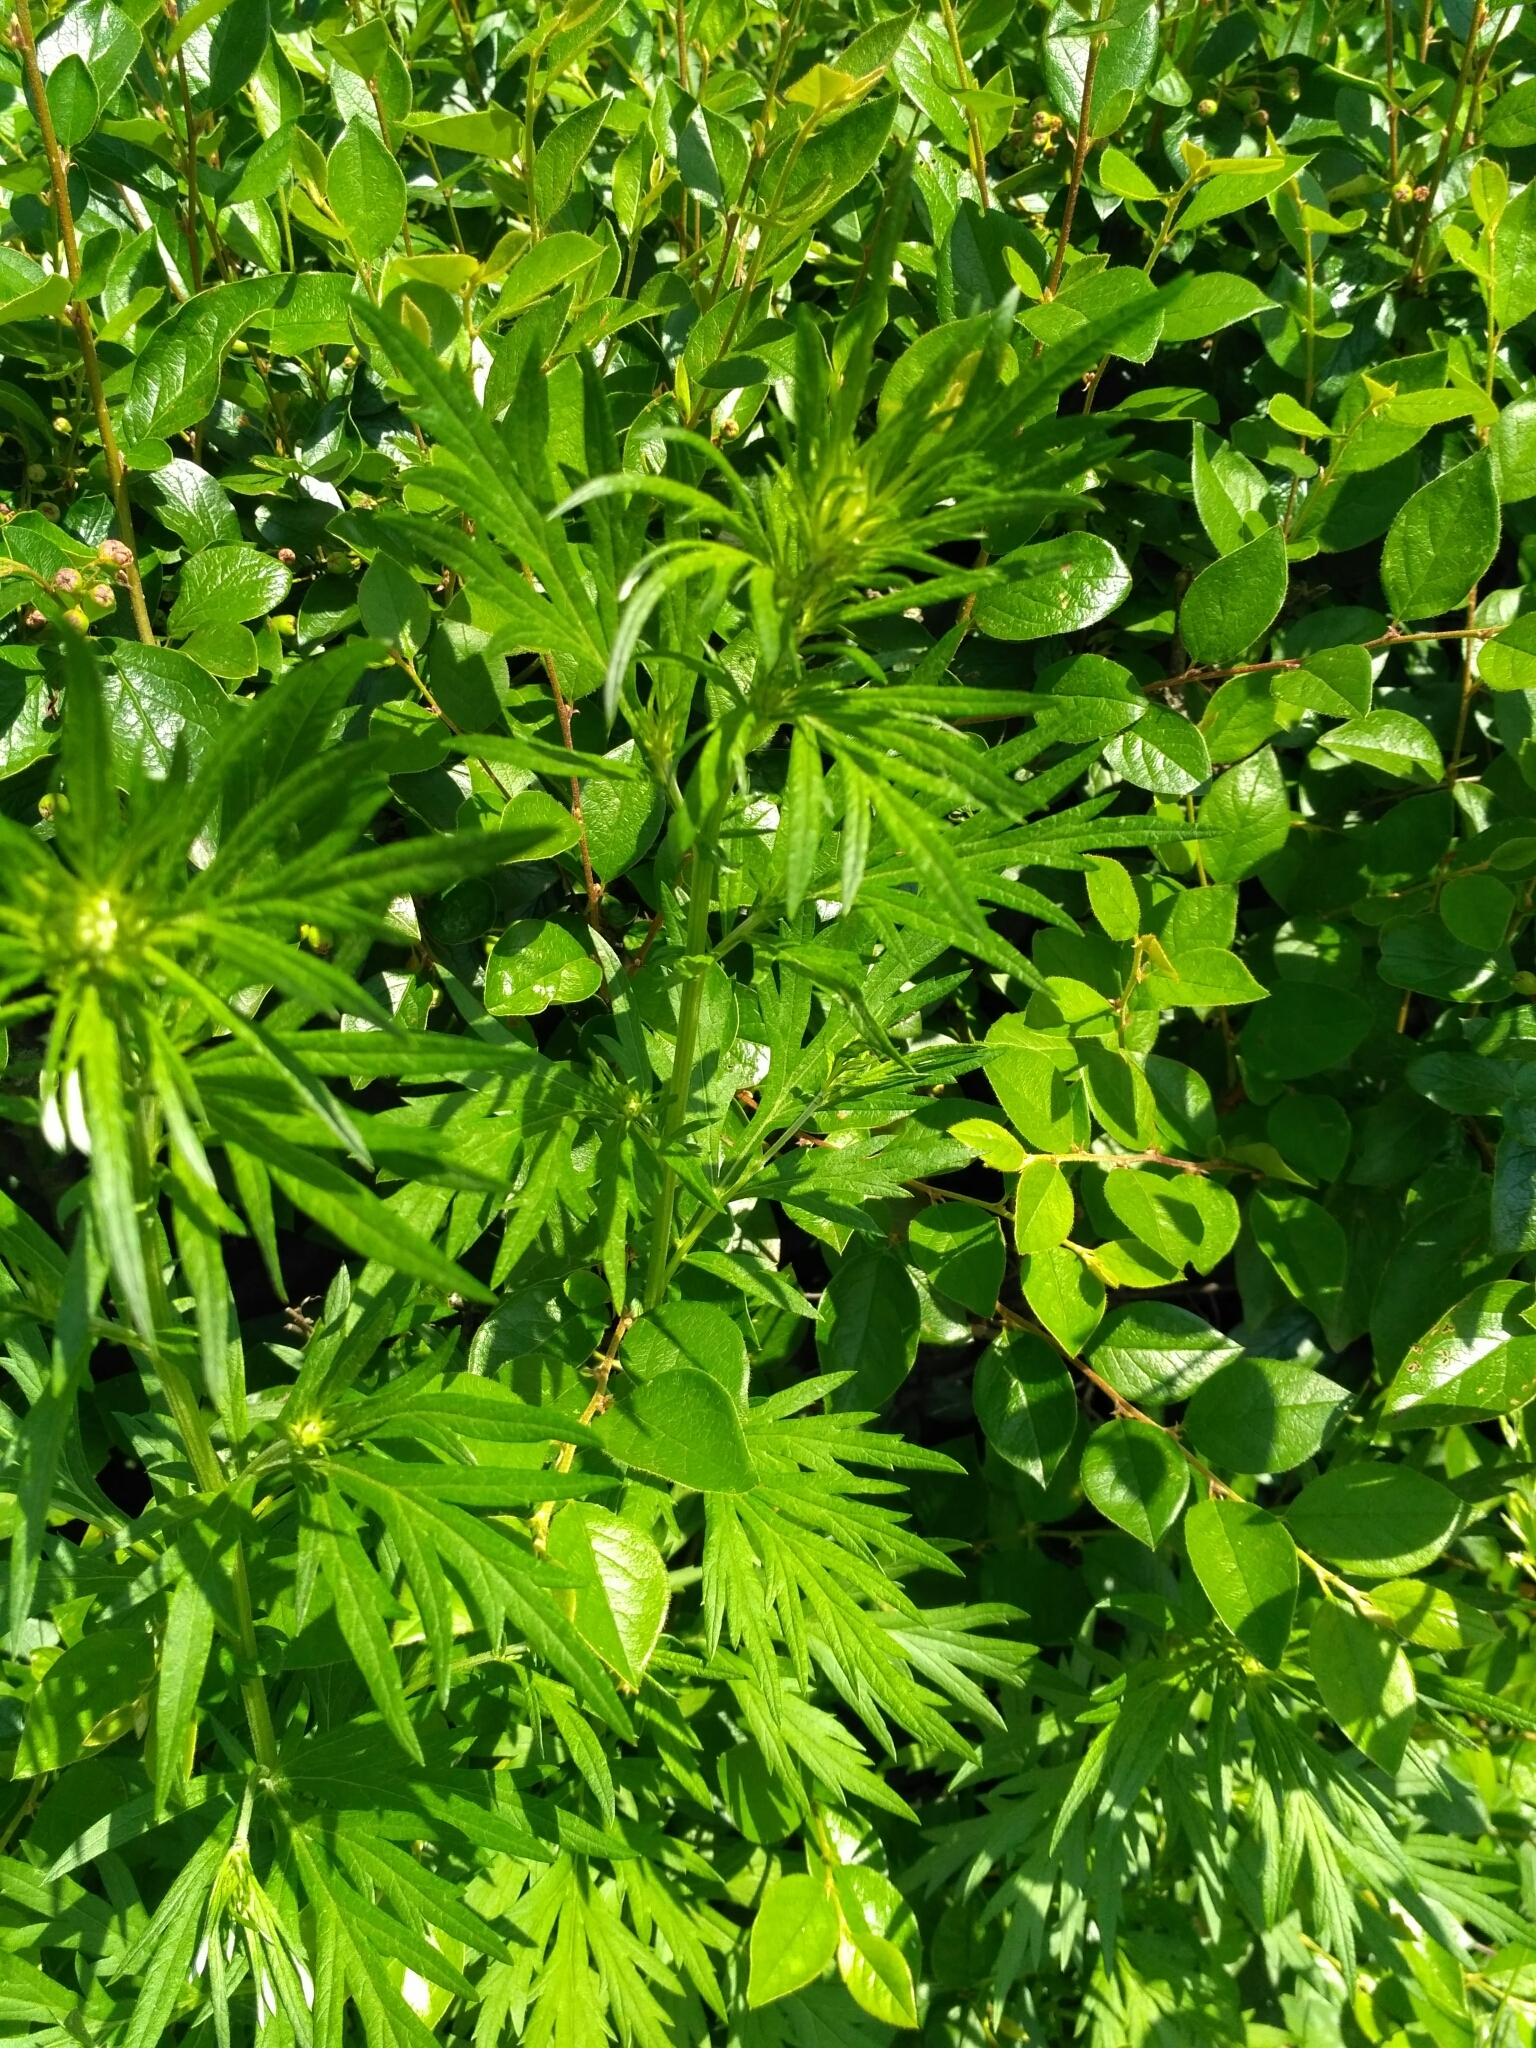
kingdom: Plantae
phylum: Tracheophyta
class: Magnoliopsida
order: Asterales
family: Asteraceae
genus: Artemisia
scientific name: Artemisia vulgaris
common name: Mugwort
